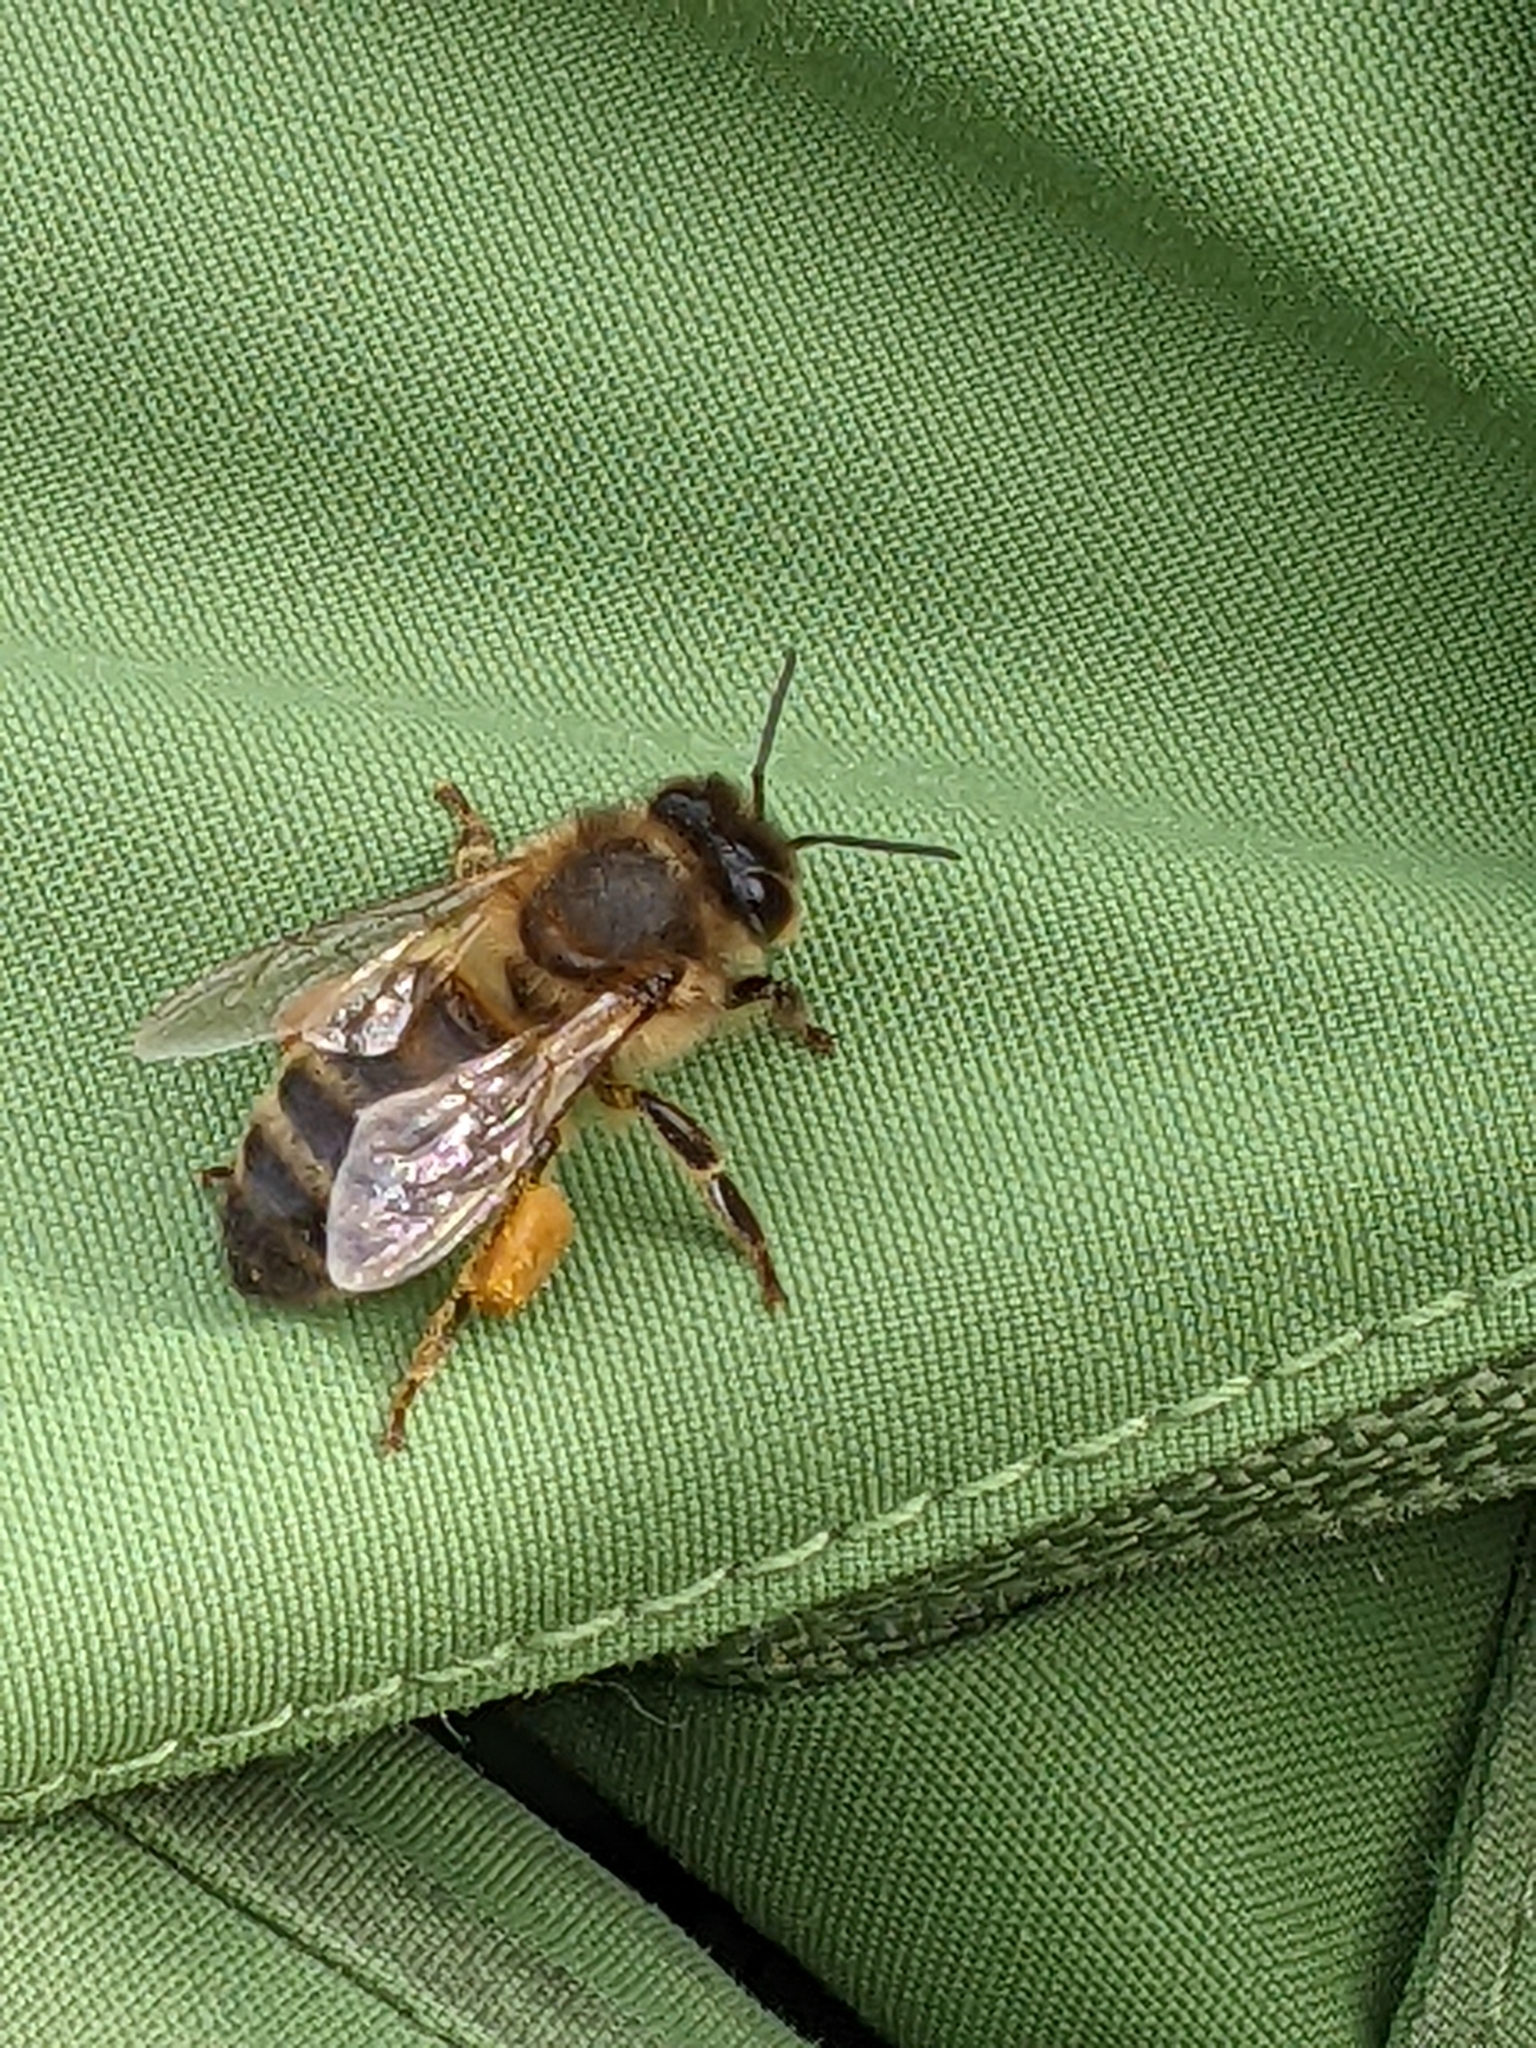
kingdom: Animalia
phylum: Arthropoda
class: Insecta
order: Hymenoptera
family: Apidae
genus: Apis
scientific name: Apis mellifera
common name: Honey bee
